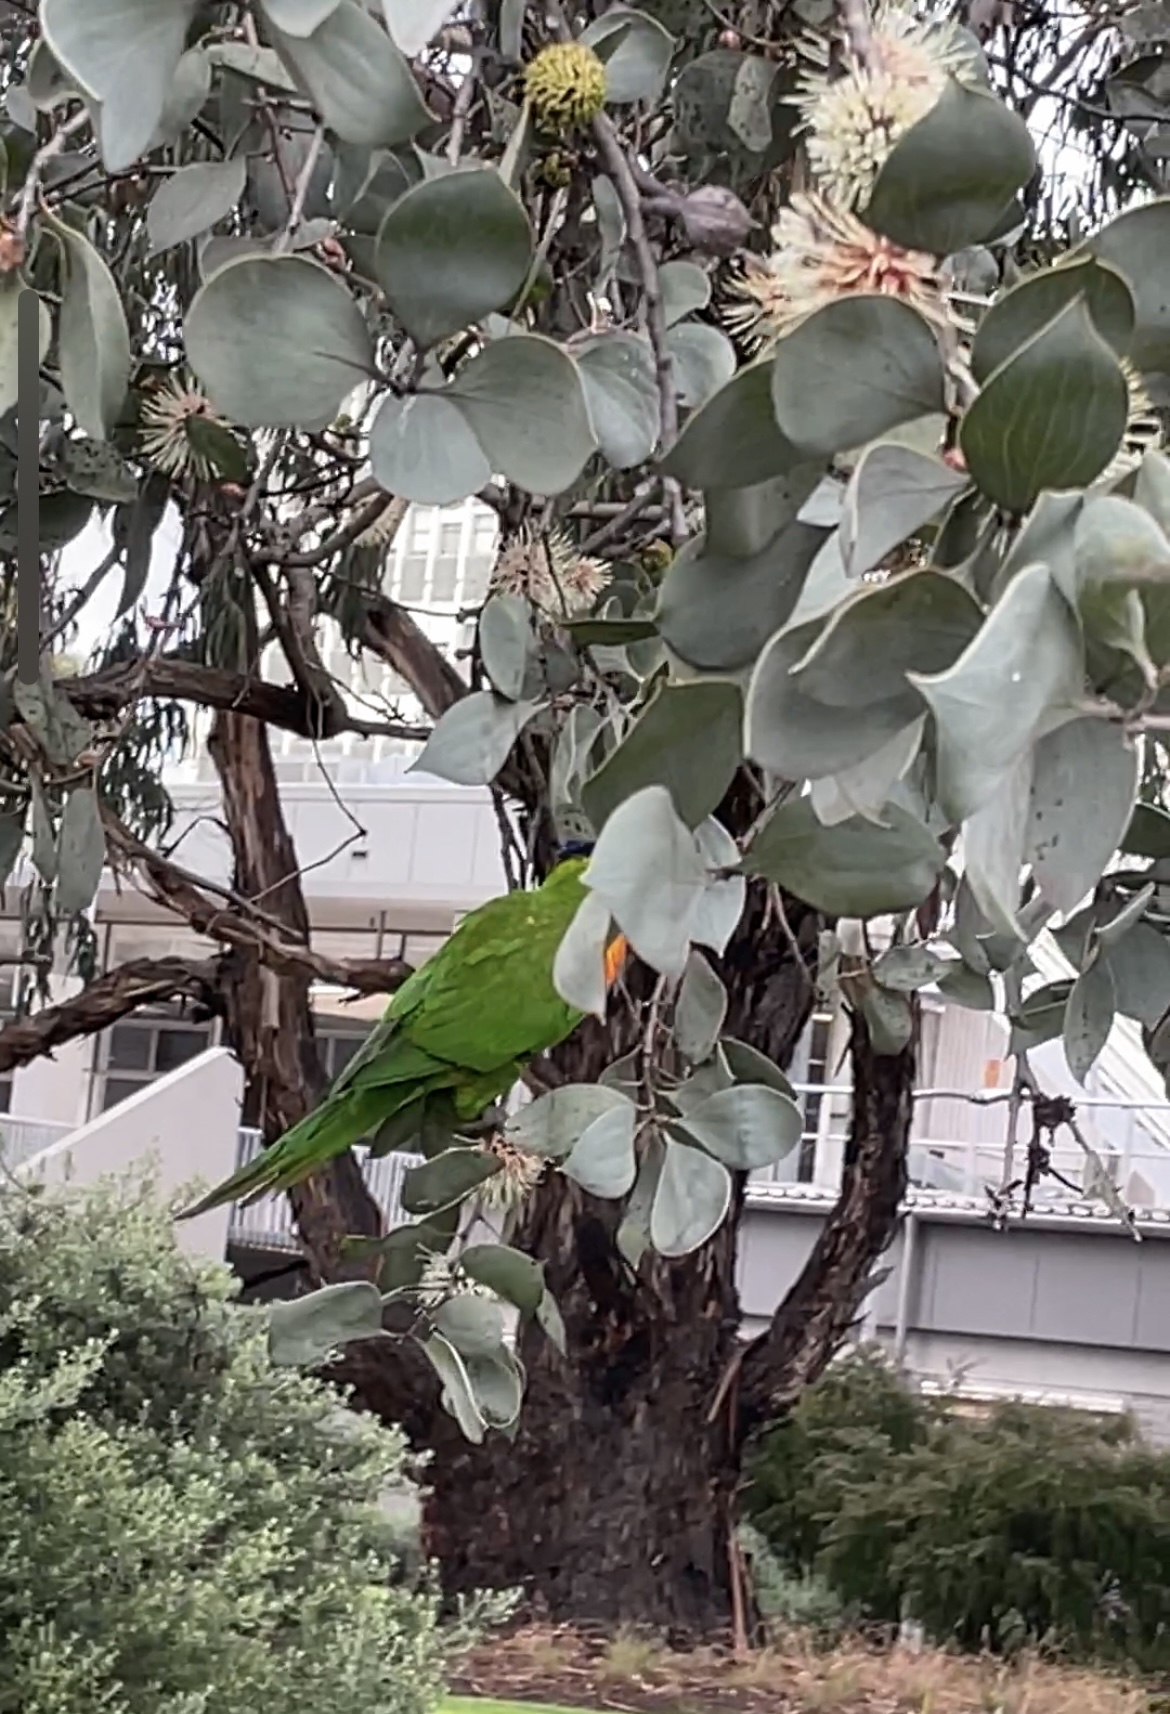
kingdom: Animalia
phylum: Chordata
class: Aves
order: Psittaciformes
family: Psittacidae
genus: Trichoglossus
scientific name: Trichoglossus haematodus
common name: Coconut lorikeet
